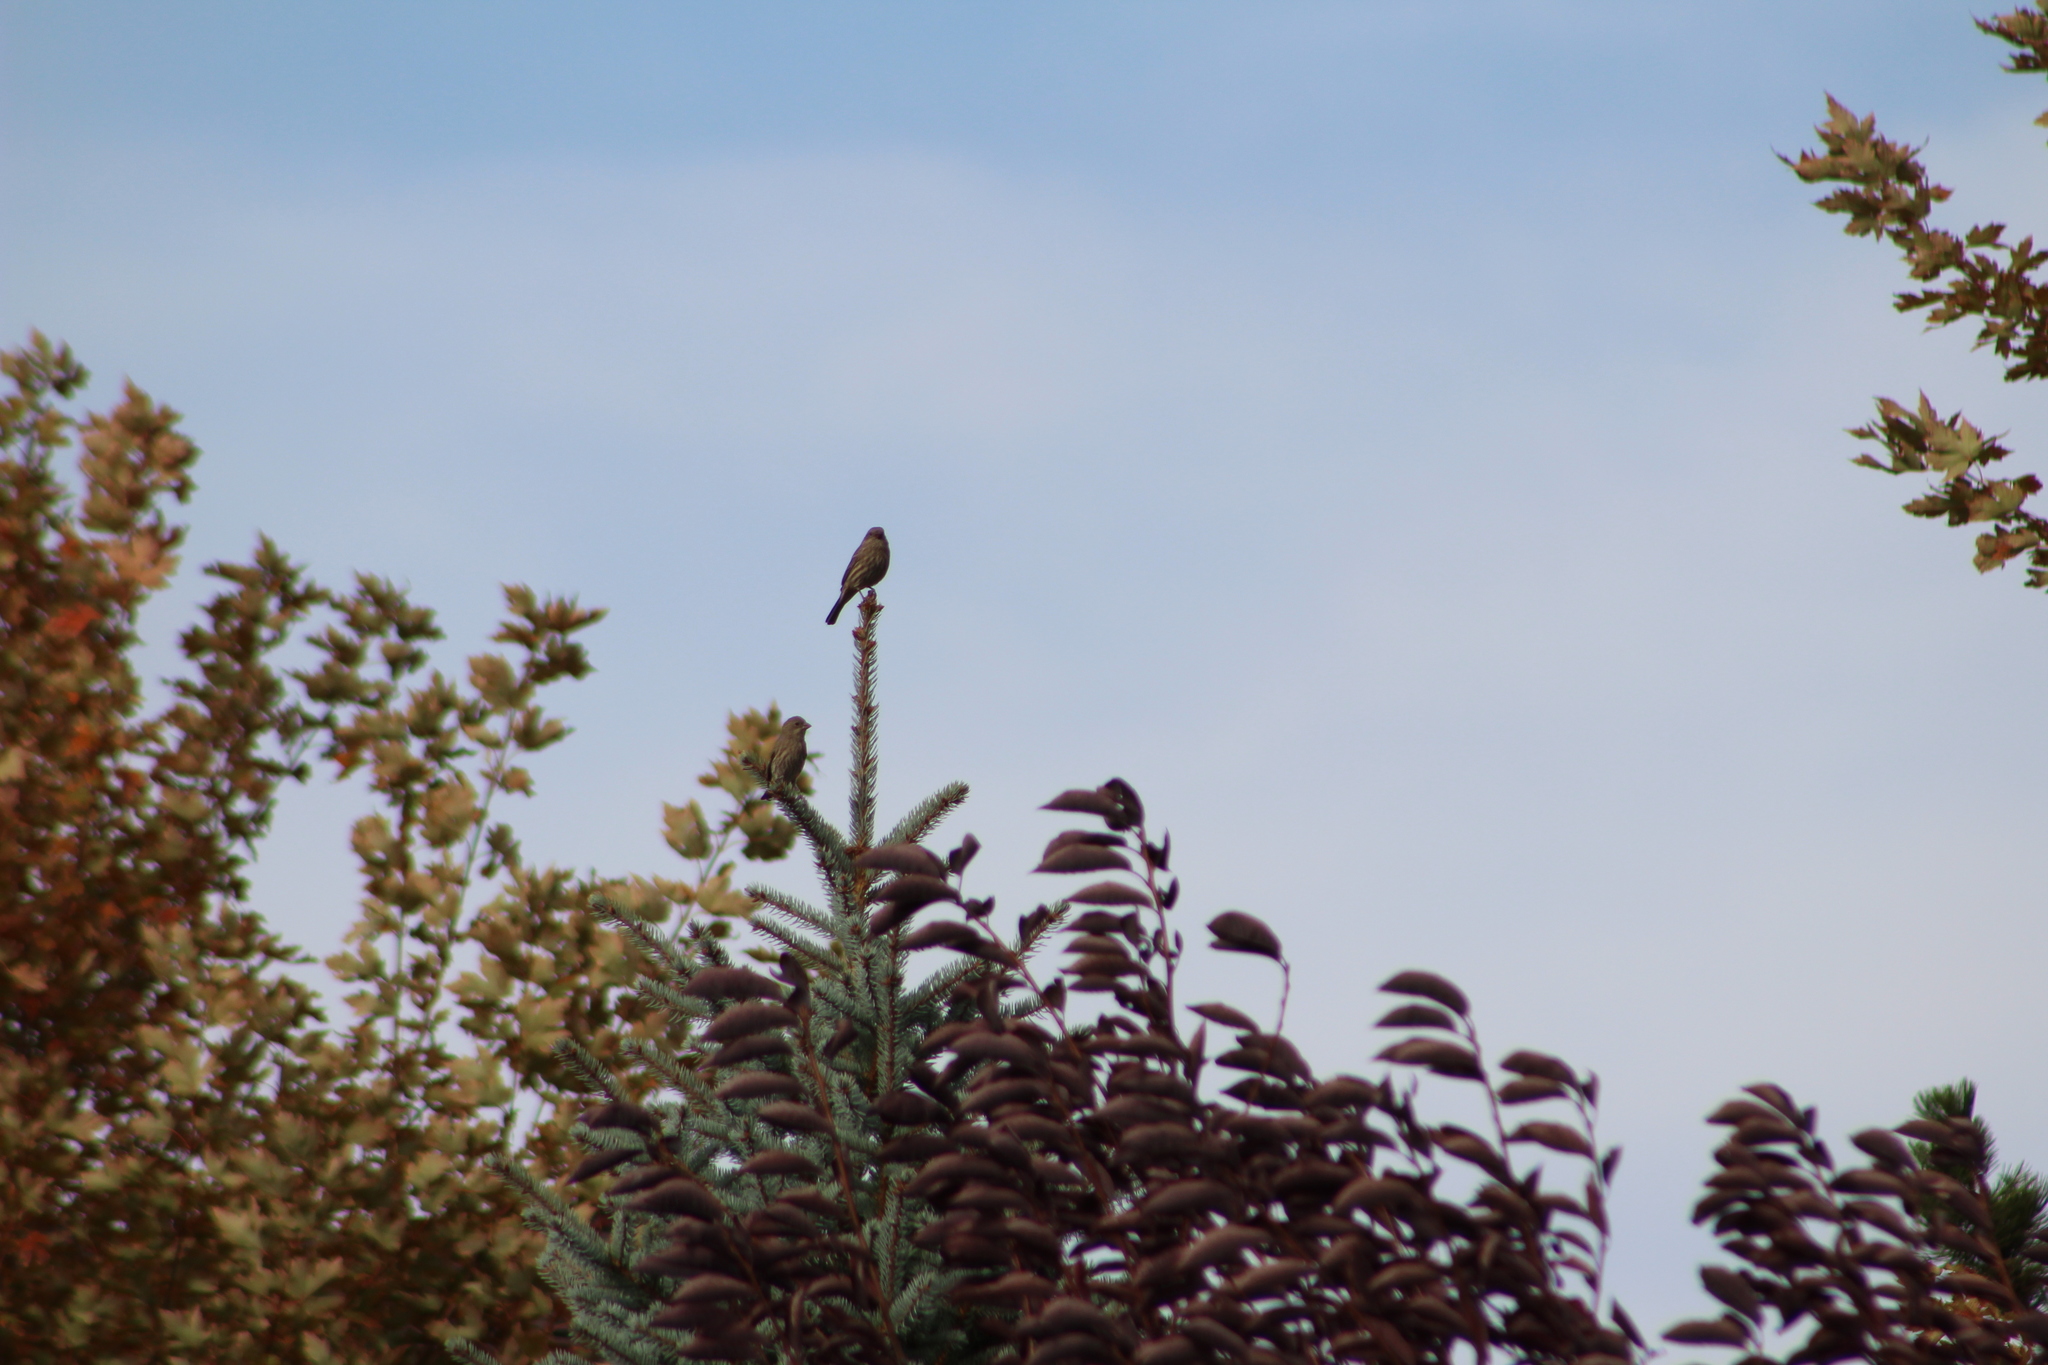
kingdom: Animalia
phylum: Chordata
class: Aves
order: Passeriformes
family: Fringillidae
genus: Haemorhous
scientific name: Haemorhous mexicanus
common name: House finch
